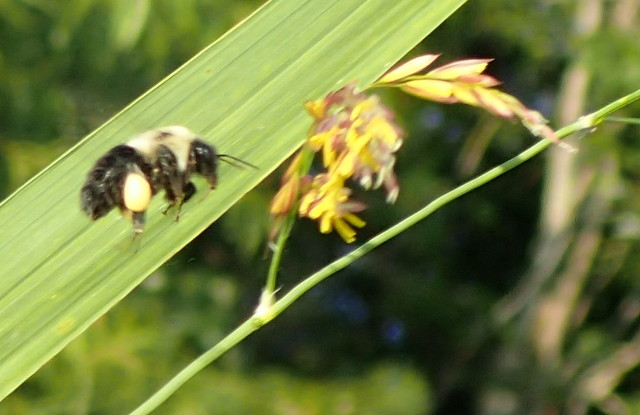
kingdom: Animalia
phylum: Arthropoda
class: Insecta
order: Hymenoptera
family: Apidae
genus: Bombus
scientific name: Bombus impatiens
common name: Common eastern bumble bee
